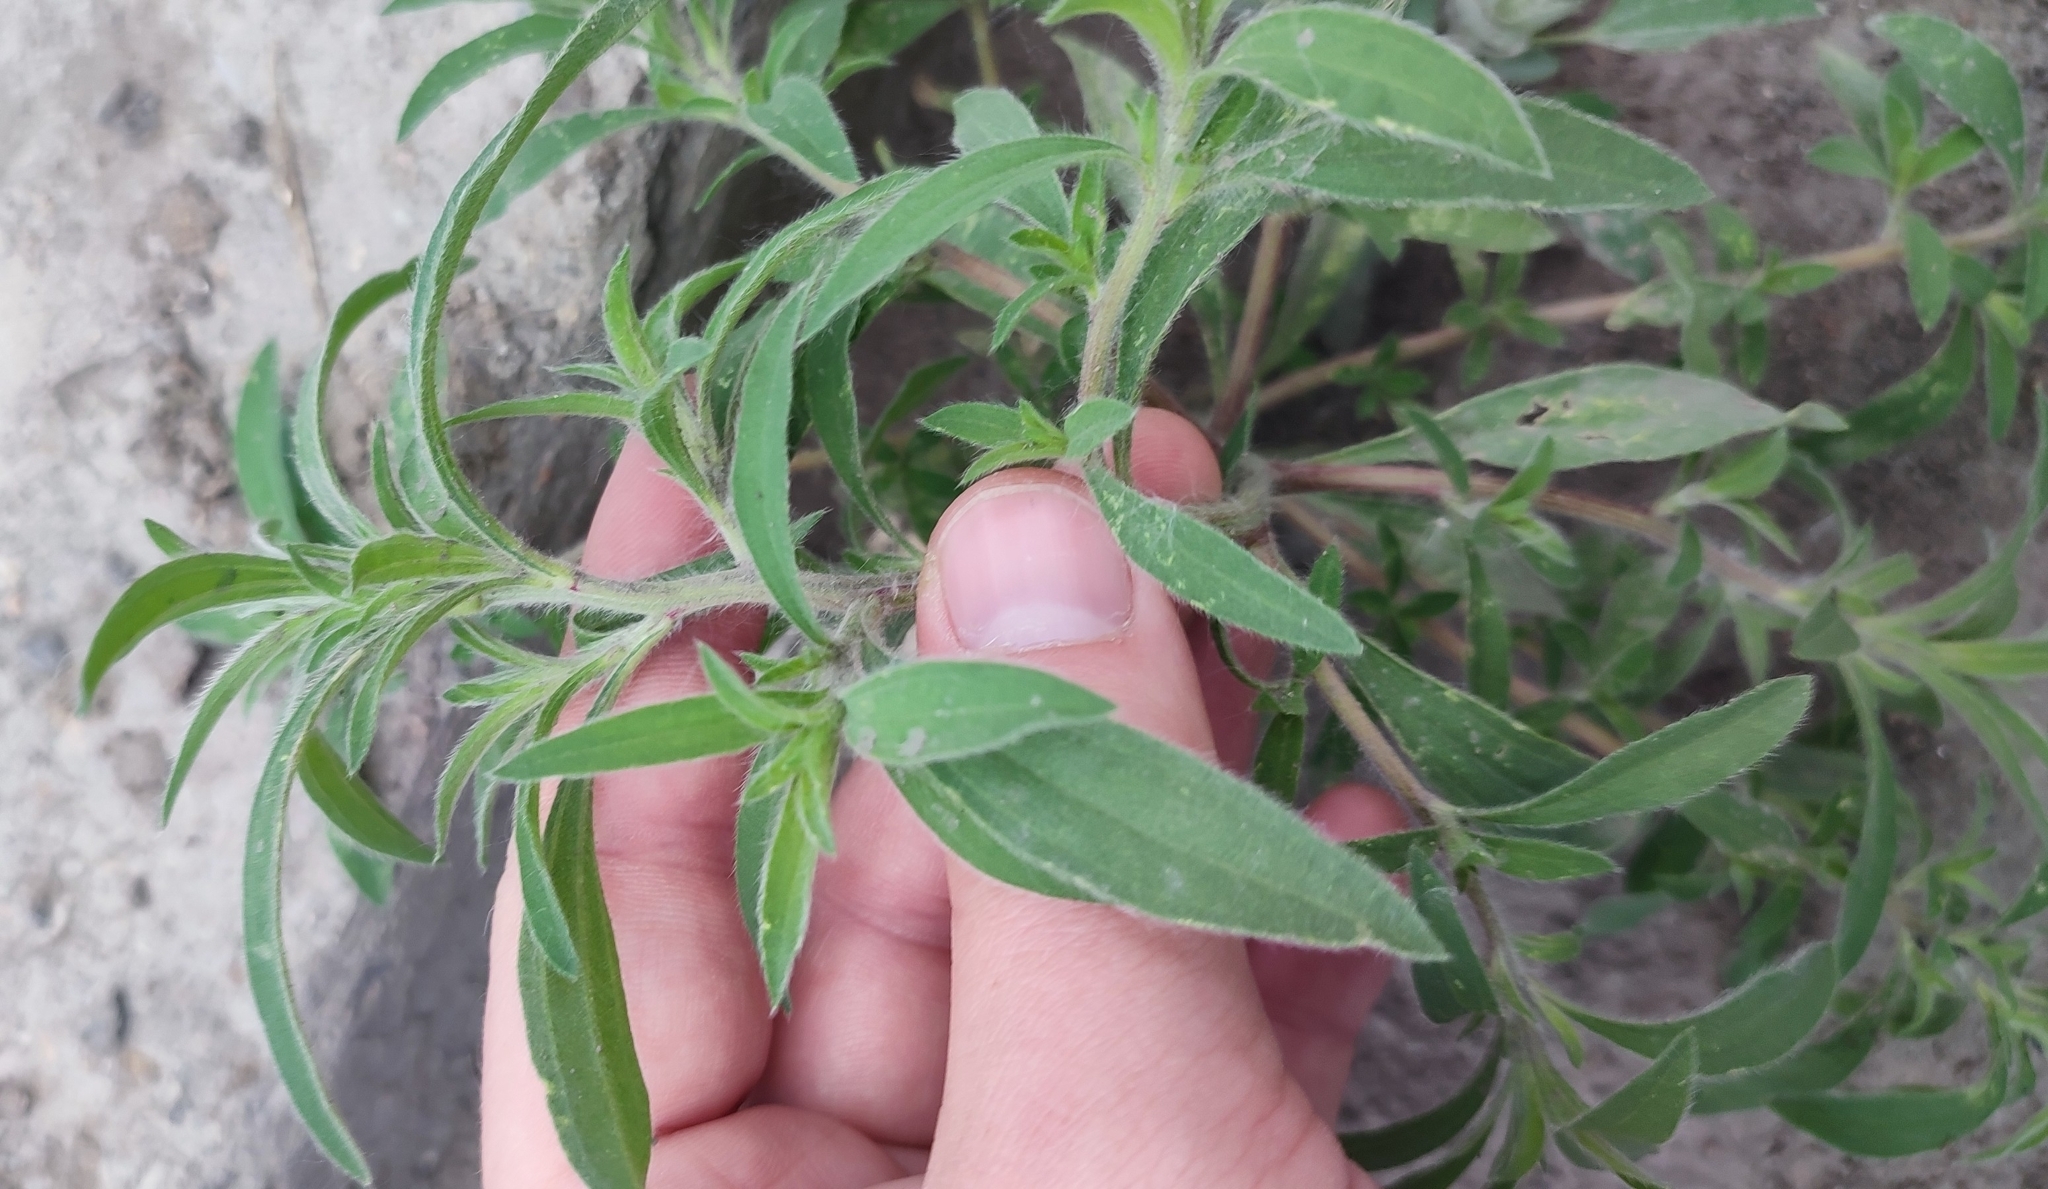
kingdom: Plantae
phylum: Tracheophyta
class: Magnoliopsida
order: Caryophyllales
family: Amaranthaceae
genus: Bassia
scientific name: Bassia scoparia
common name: Belvedere
